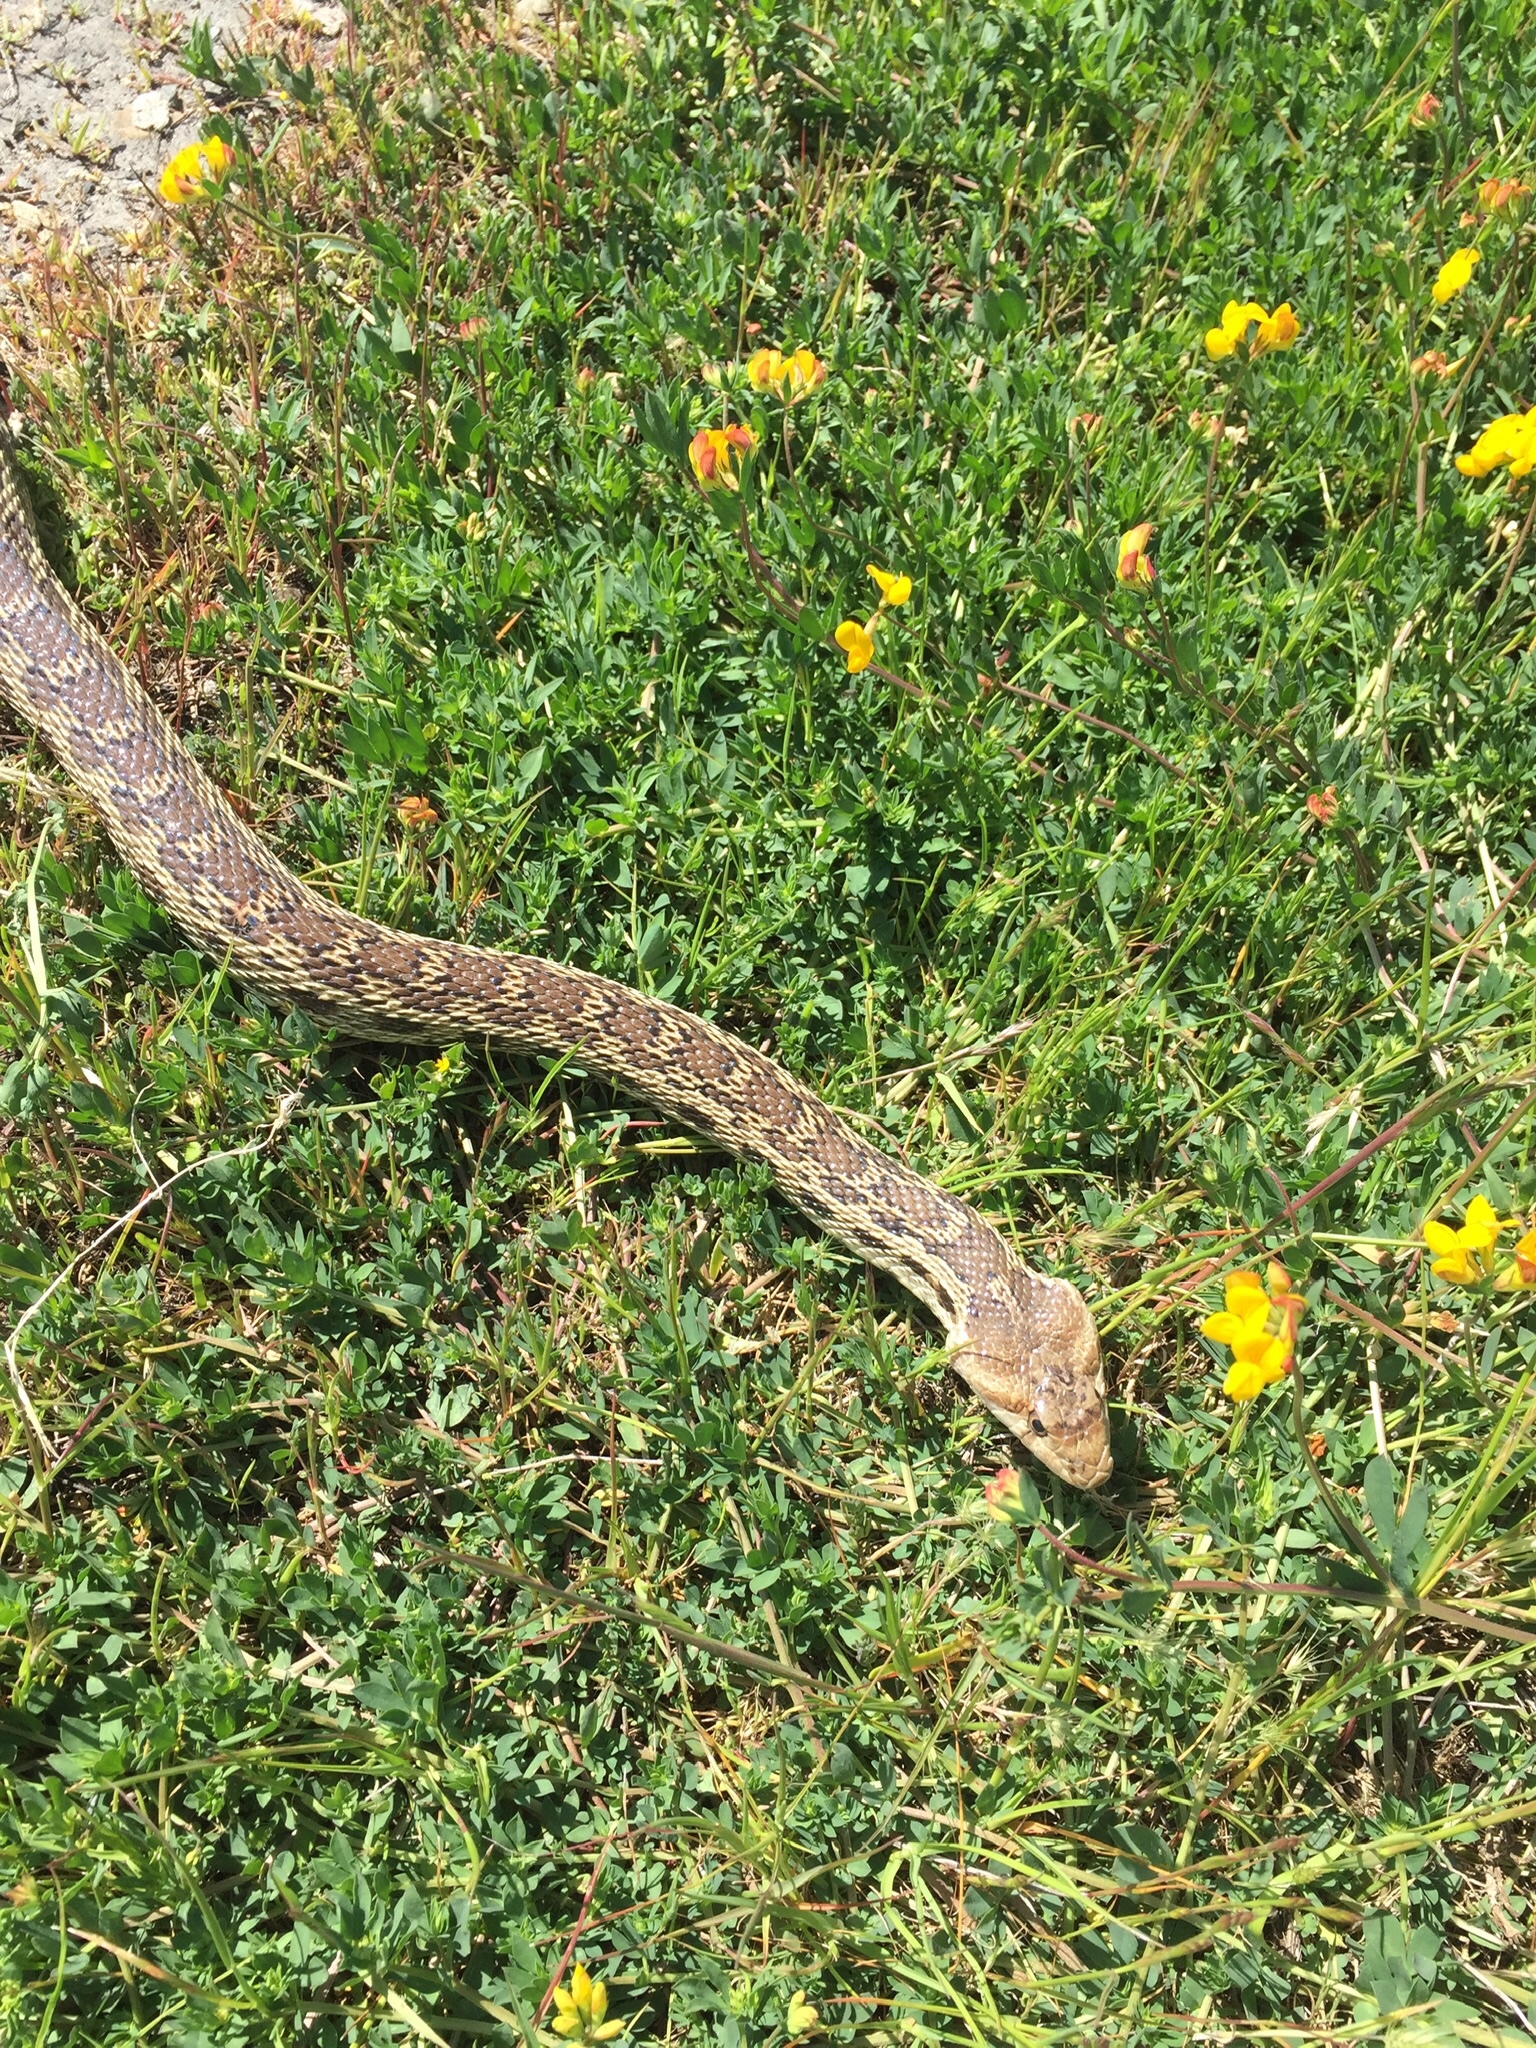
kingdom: Animalia
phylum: Chordata
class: Squamata
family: Colubridae
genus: Pituophis
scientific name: Pituophis catenifer
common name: Gopher snake
